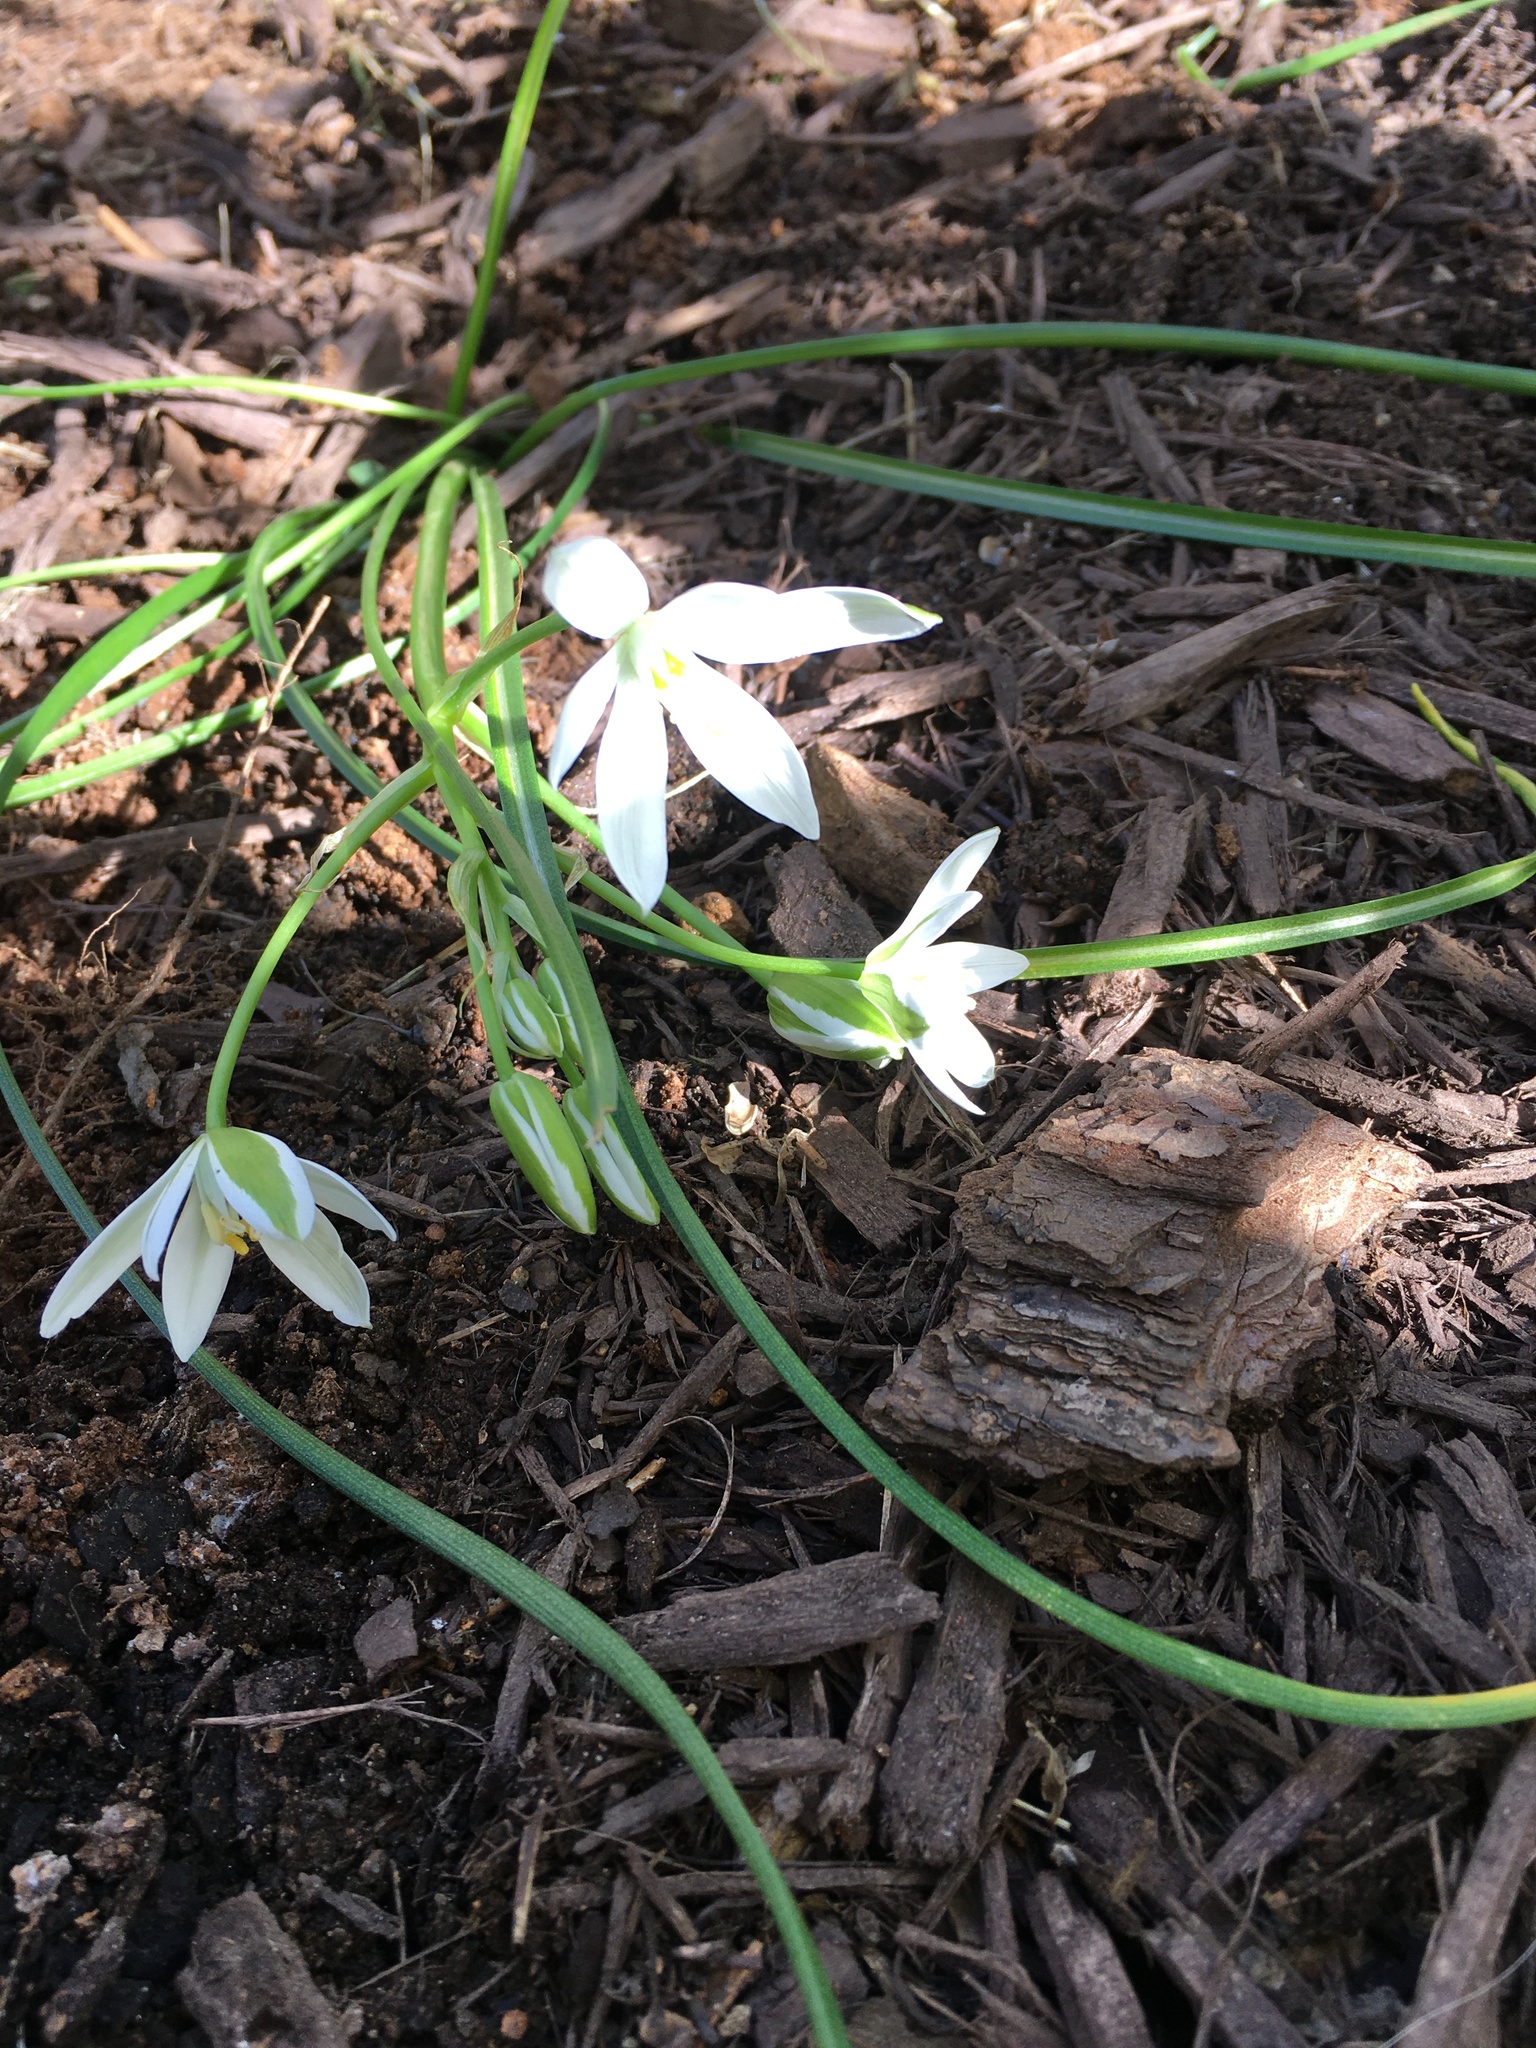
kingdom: Plantae
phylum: Tracheophyta
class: Liliopsida
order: Asparagales
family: Asparagaceae
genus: Ornithogalum
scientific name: Ornithogalum umbellatum
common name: Garden star-of-bethlehem
